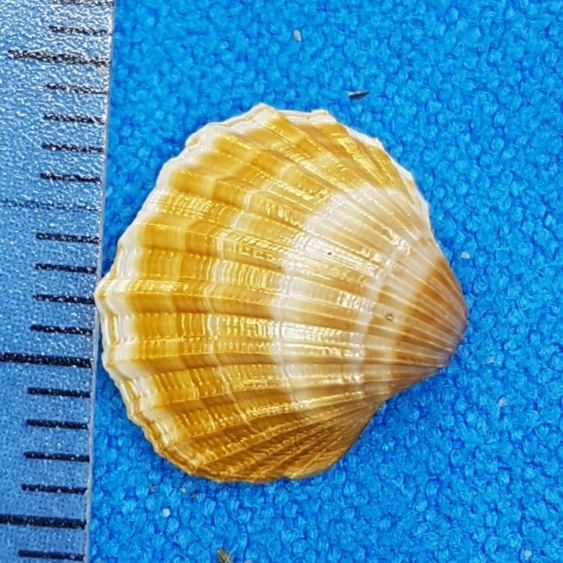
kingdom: Animalia
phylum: Mollusca
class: Bivalvia
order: Cardiida
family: Cardiidae
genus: Acanthocardia
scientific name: Acanthocardia paucicostata
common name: Poorly ribbed cockle
